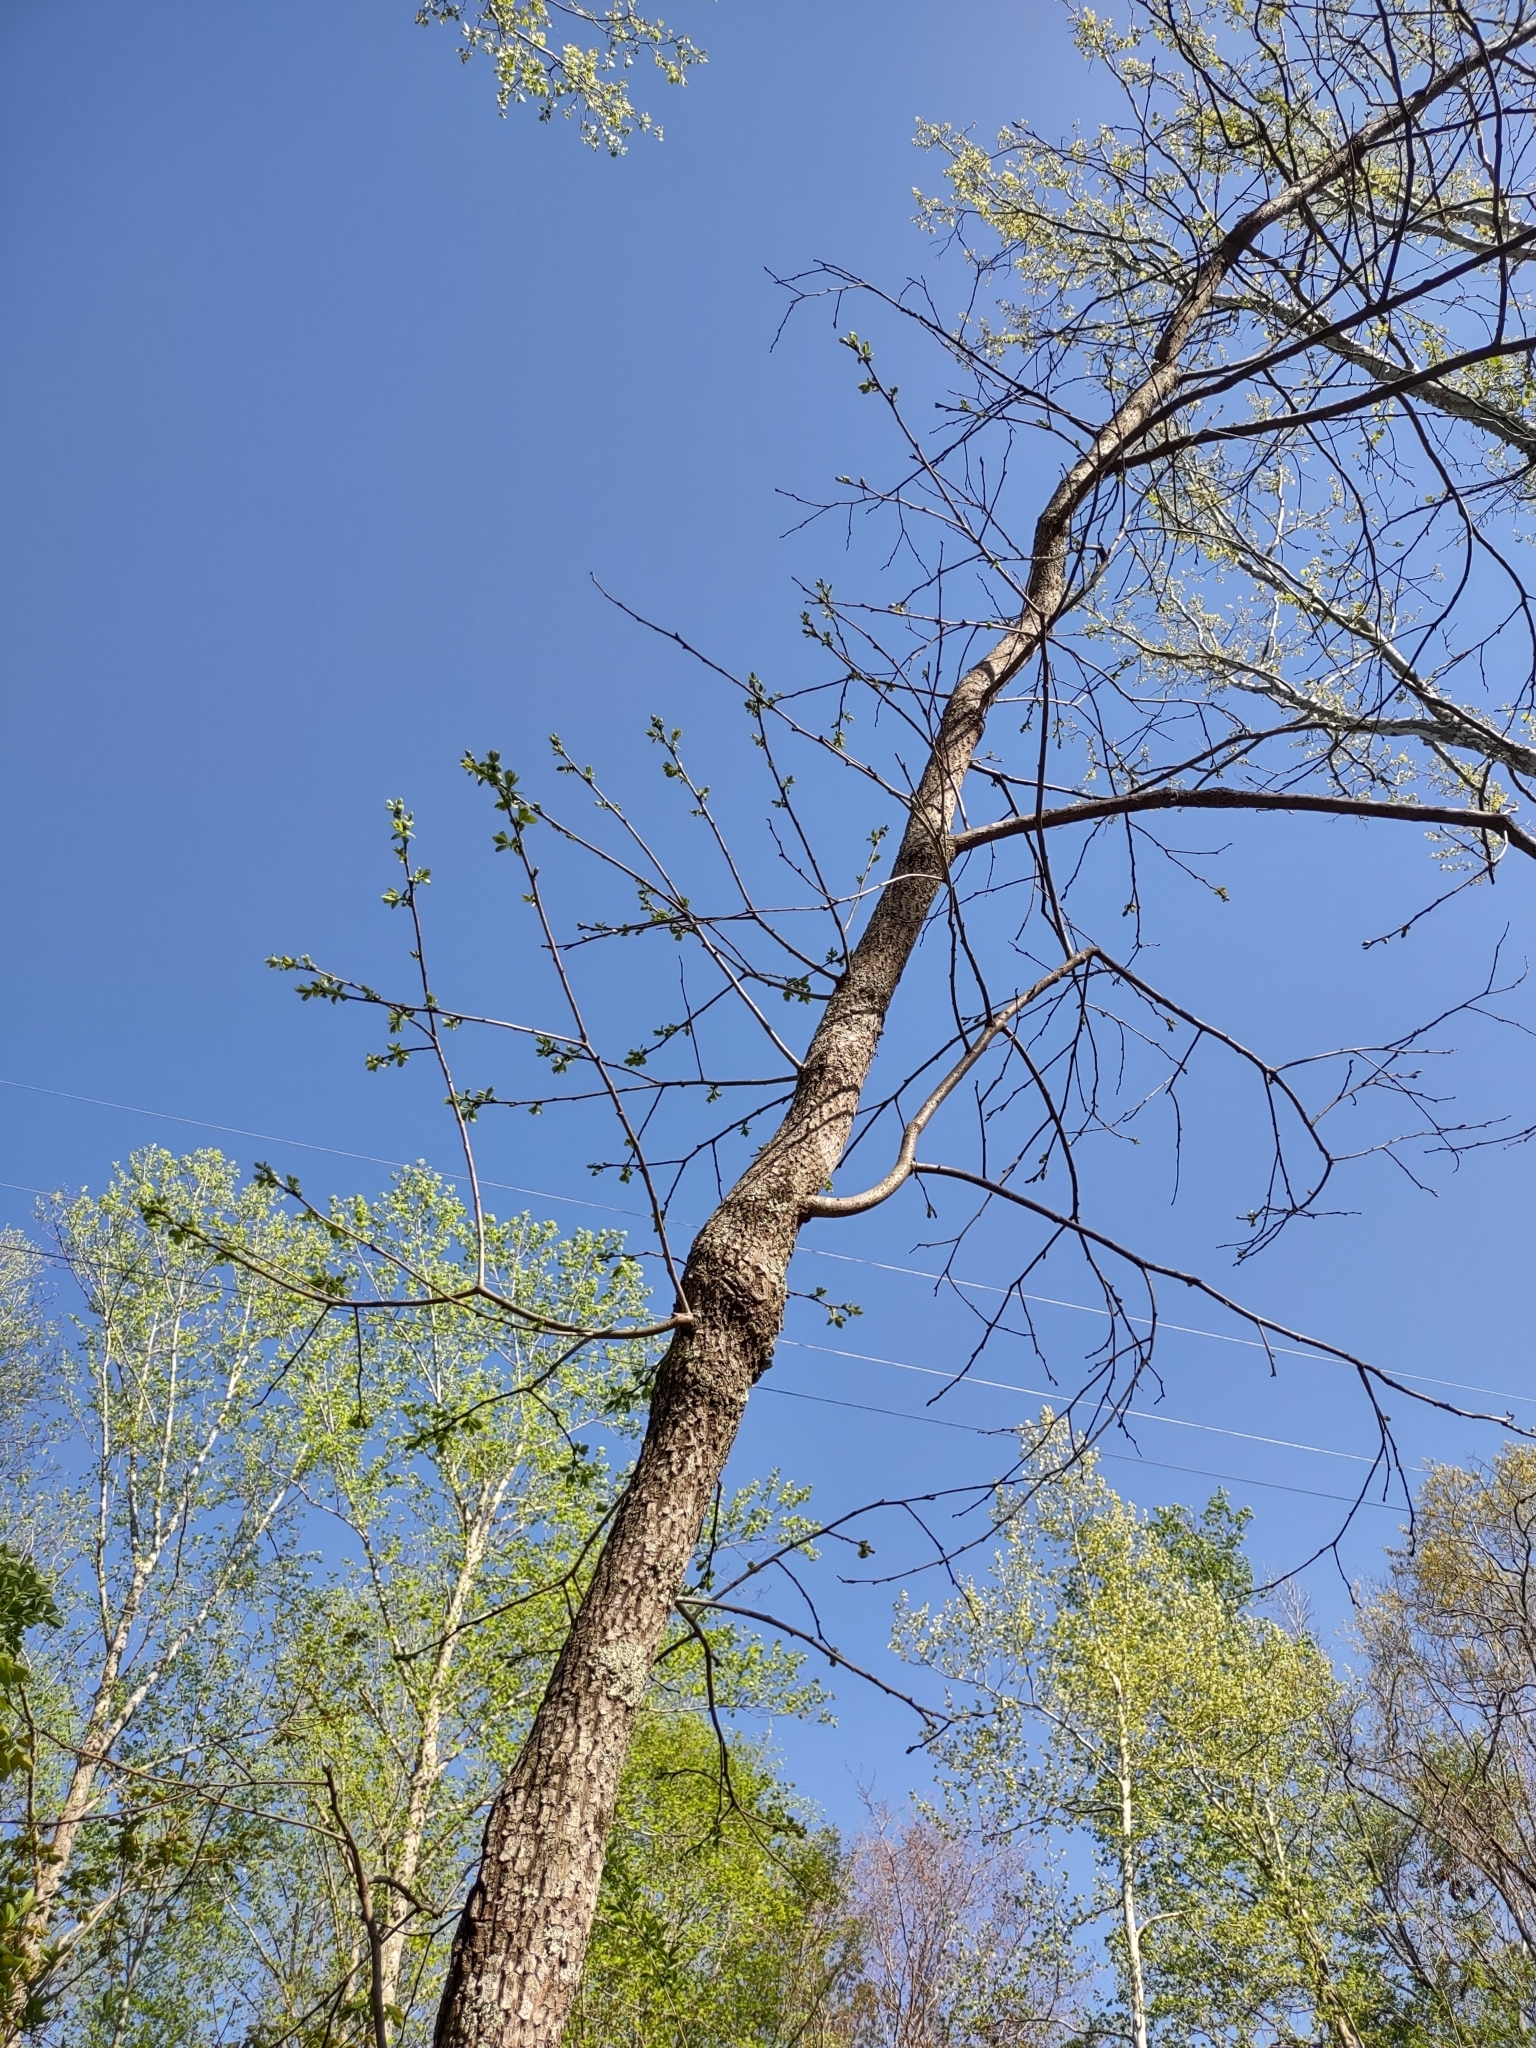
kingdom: Plantae
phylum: Tracheophyta
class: Magnoliopsida
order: Ericales
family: Ebenaceae
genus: Diospyros
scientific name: Diospyros virginiana
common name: Persimmon
